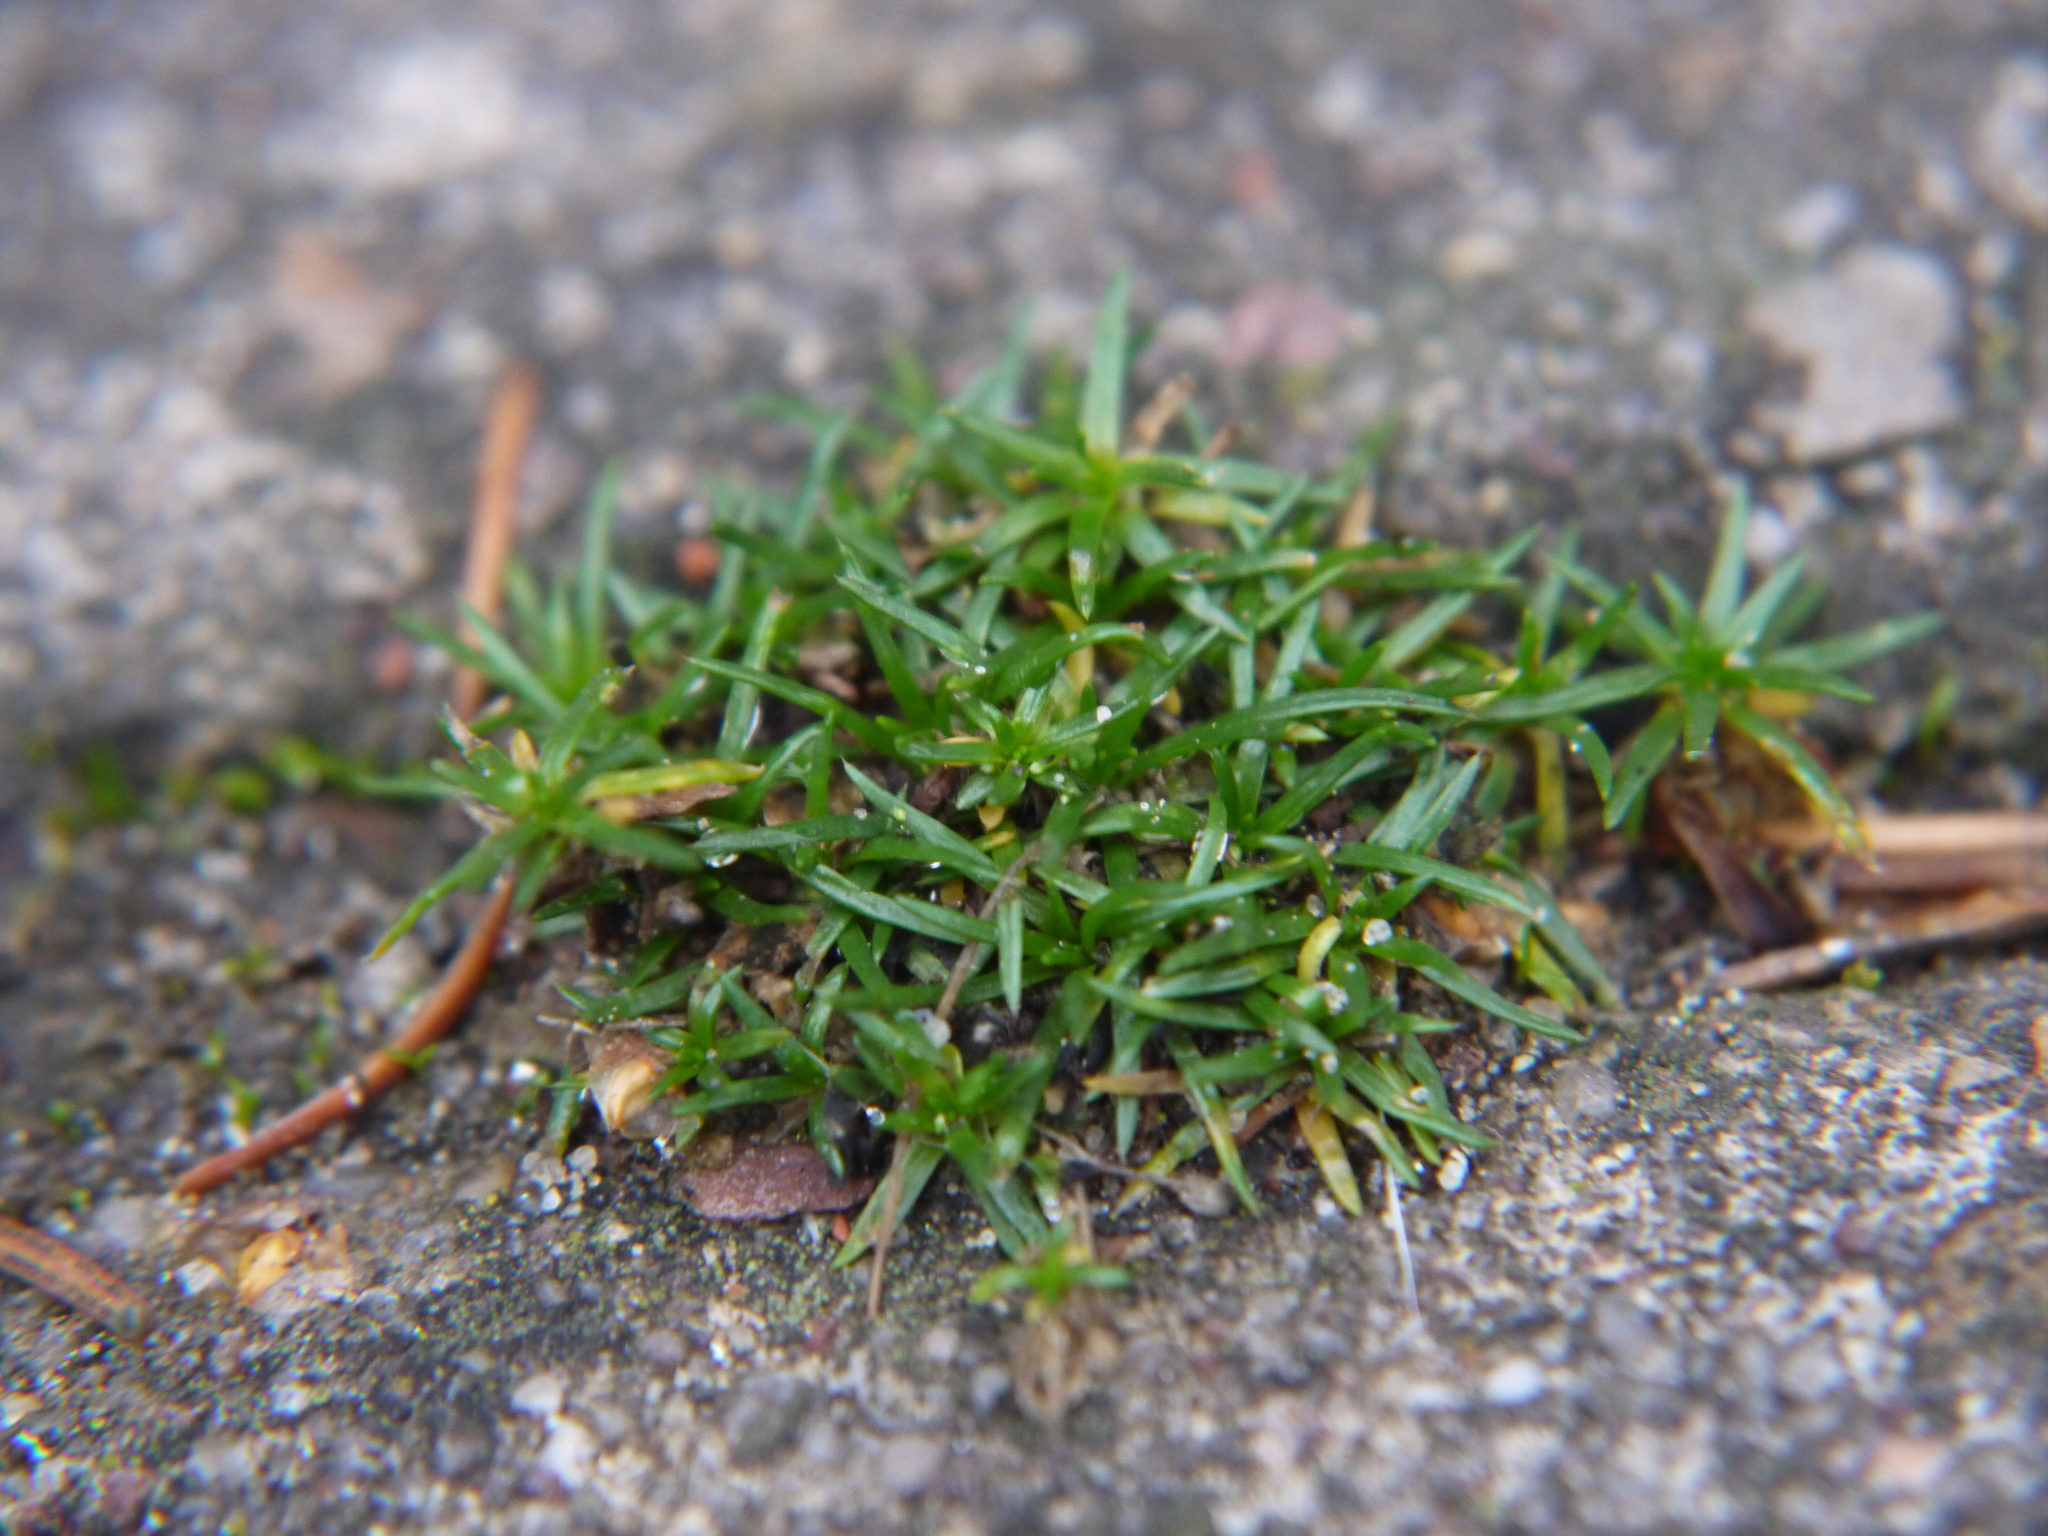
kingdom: Plantae
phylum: Tracheophyta
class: Magnoliopsida
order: Caryophyllales
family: Caryophyllaceae
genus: Sagina
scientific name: Sagina procumbens
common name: Procumbent pearlwort
